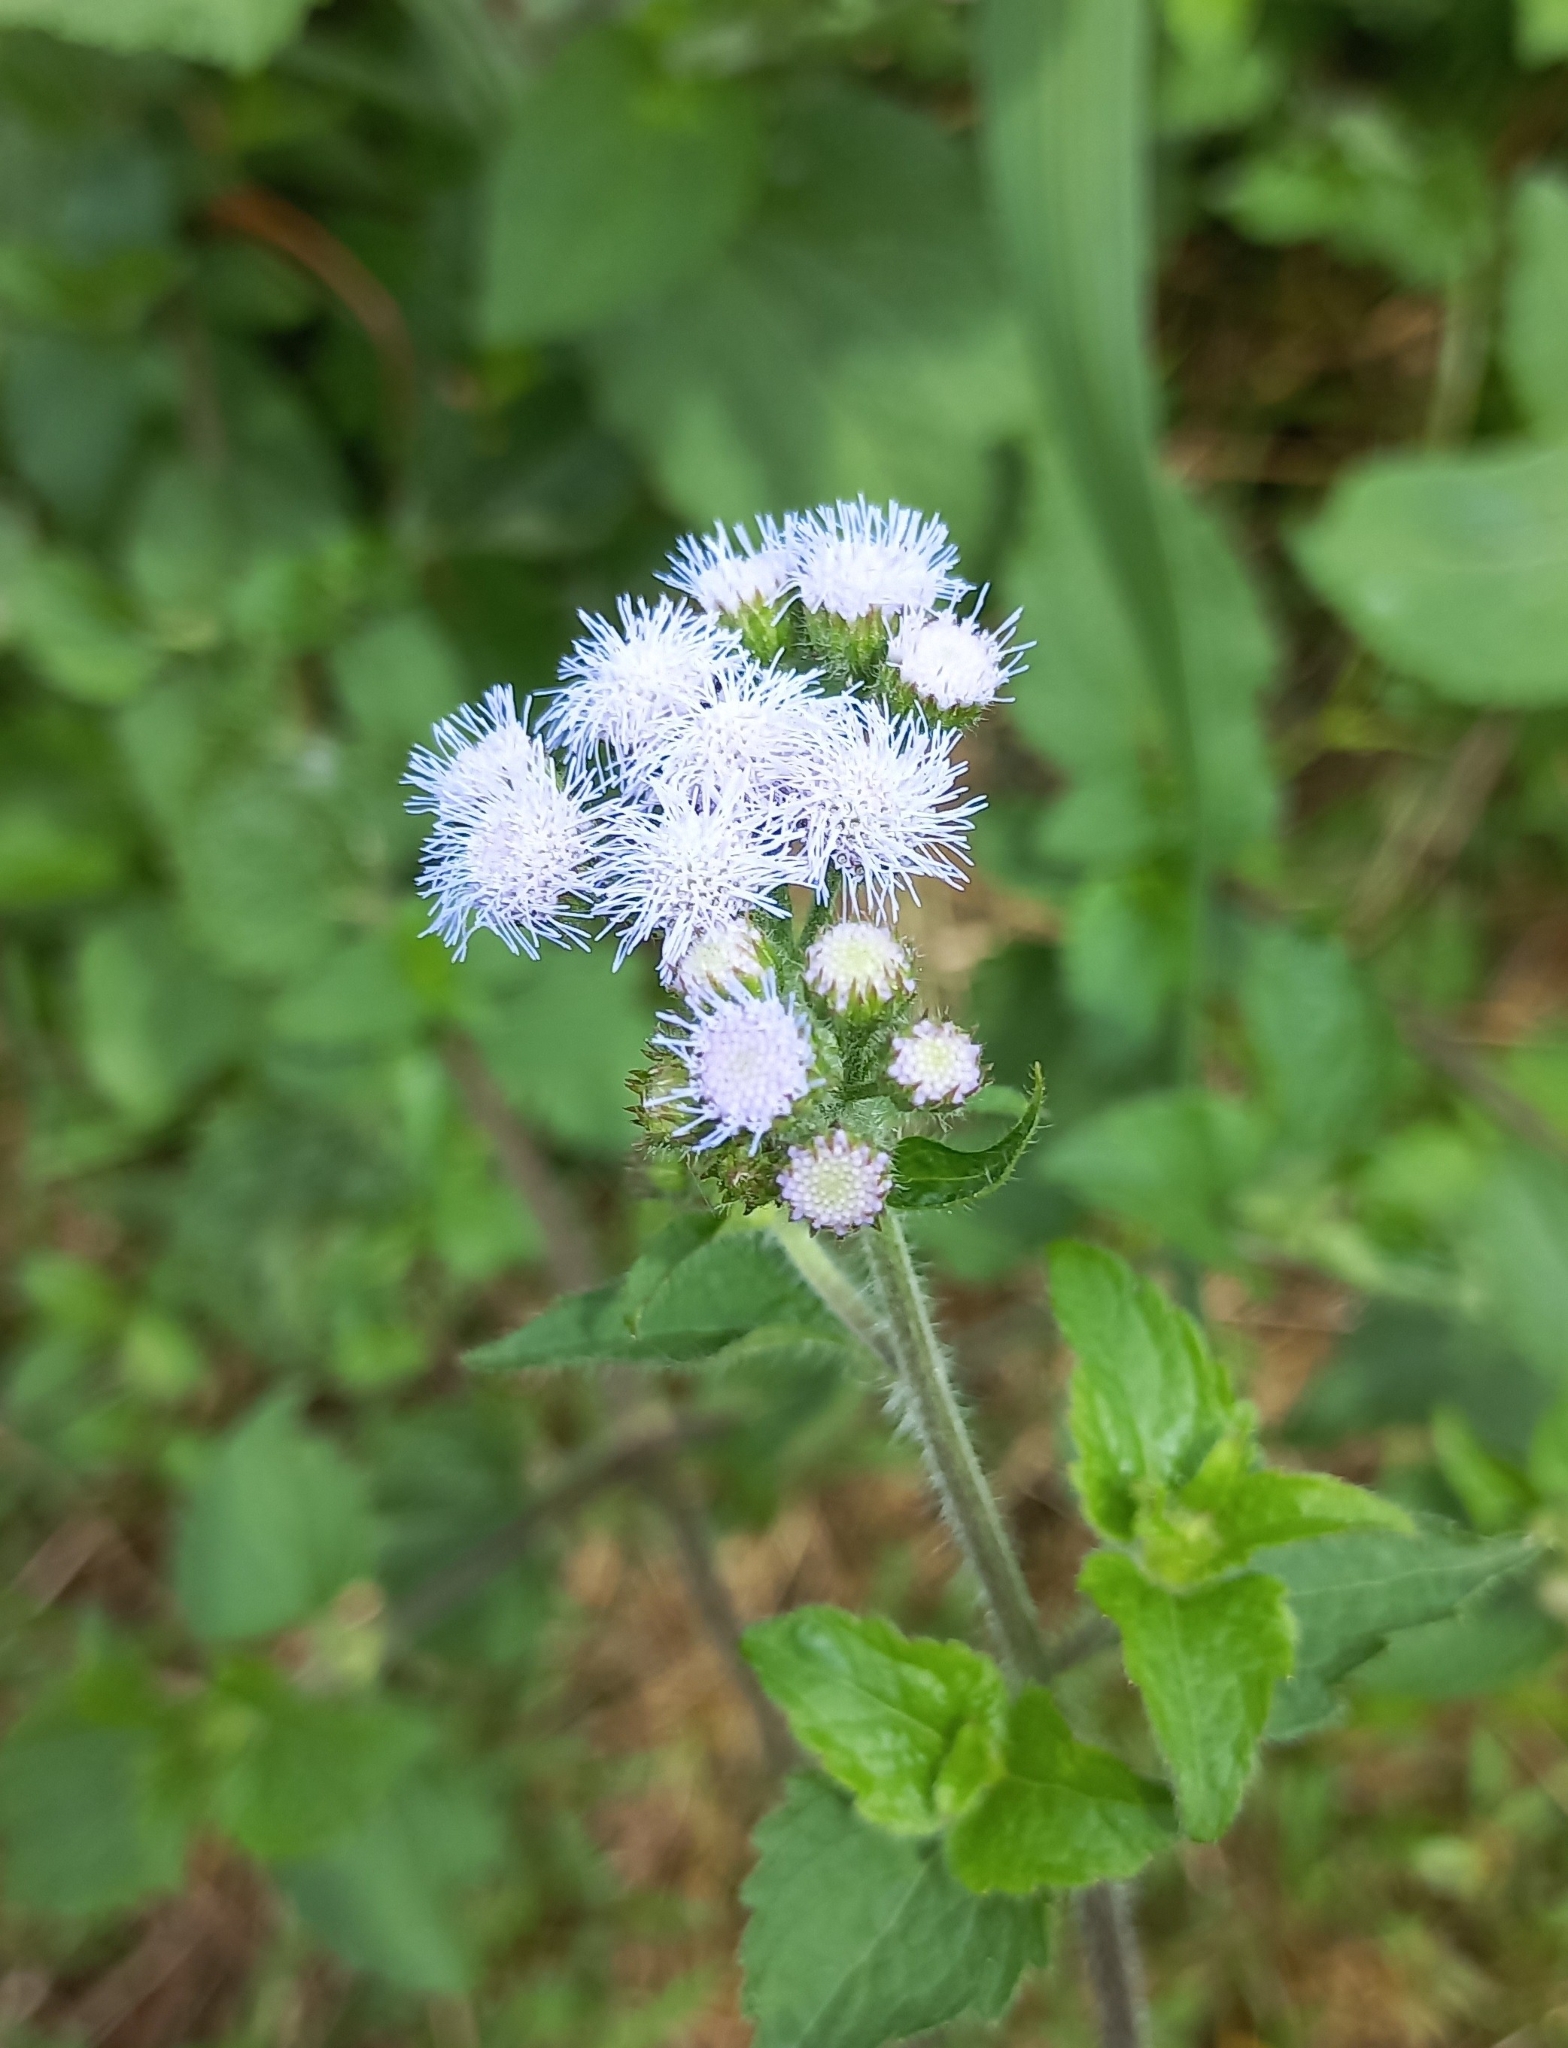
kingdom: Plantae
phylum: Tracheophyta
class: Magnoliopsida
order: Asterales
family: Asteraceae
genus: Ageratum
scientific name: Ageratum houstonianum
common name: Bluemink
